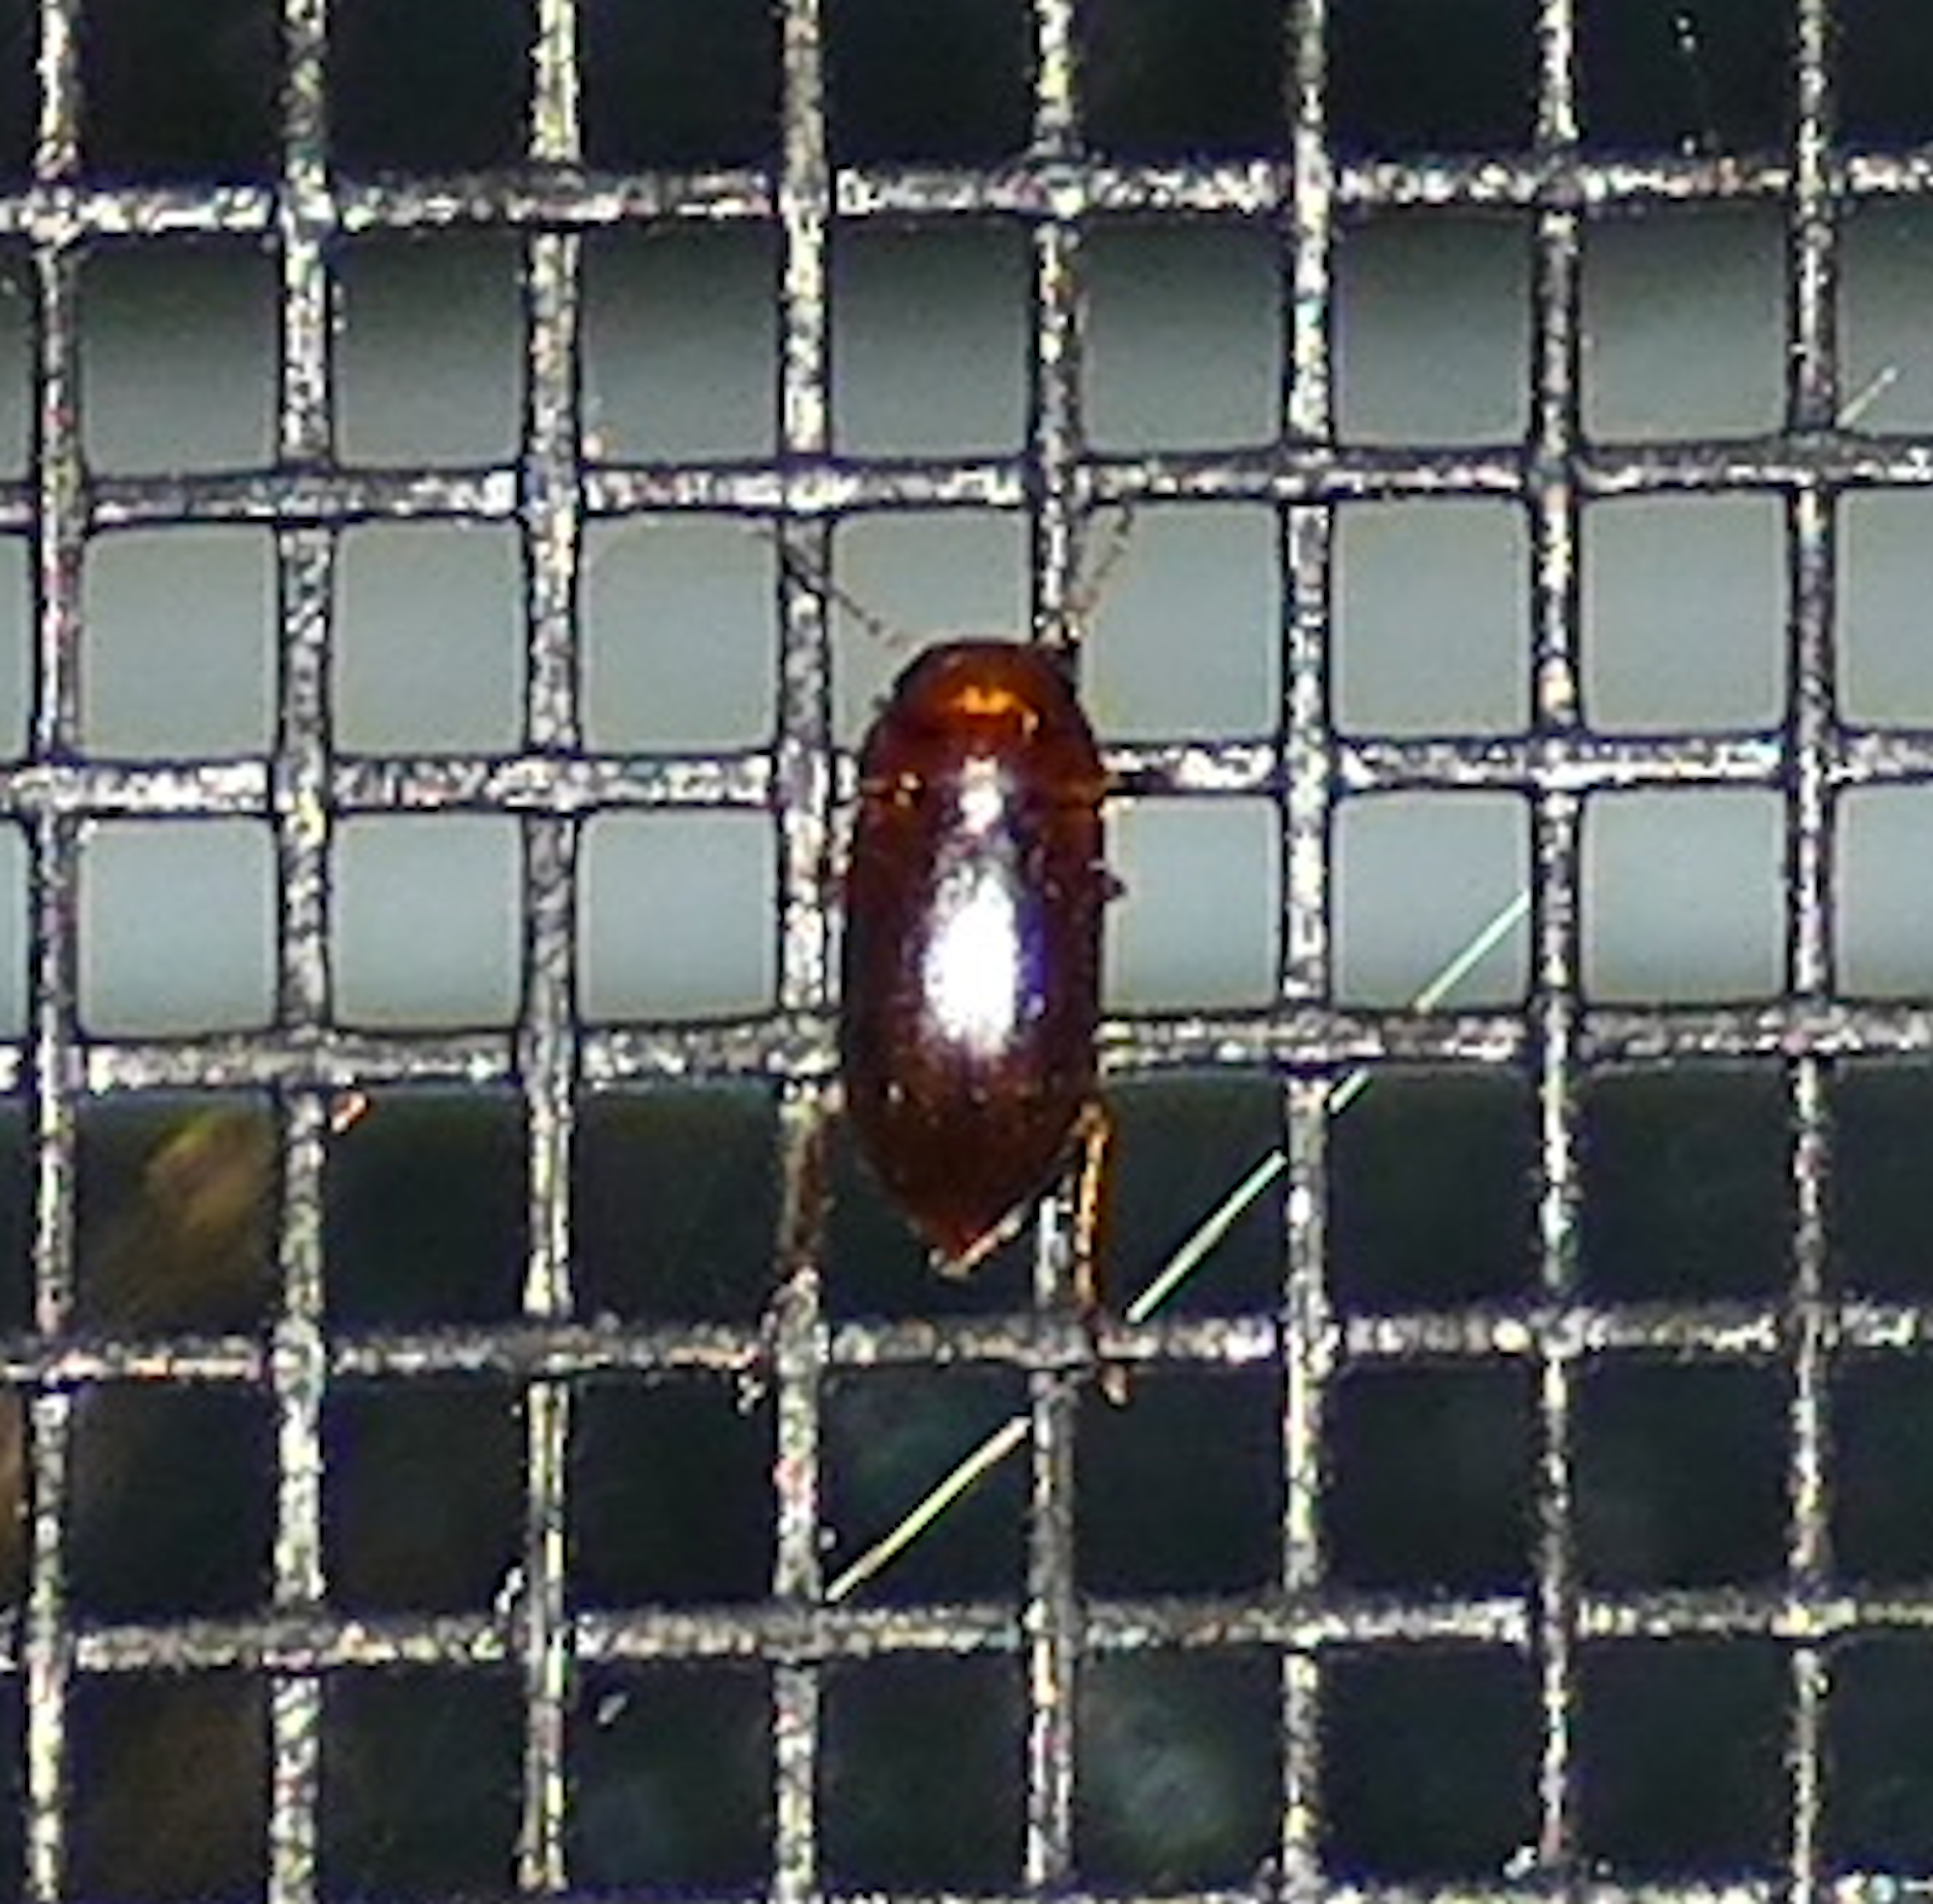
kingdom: Animalia
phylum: Arthropoda
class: Insecta
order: Coleoptera
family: Dytiscidae
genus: Celina
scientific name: Celina
